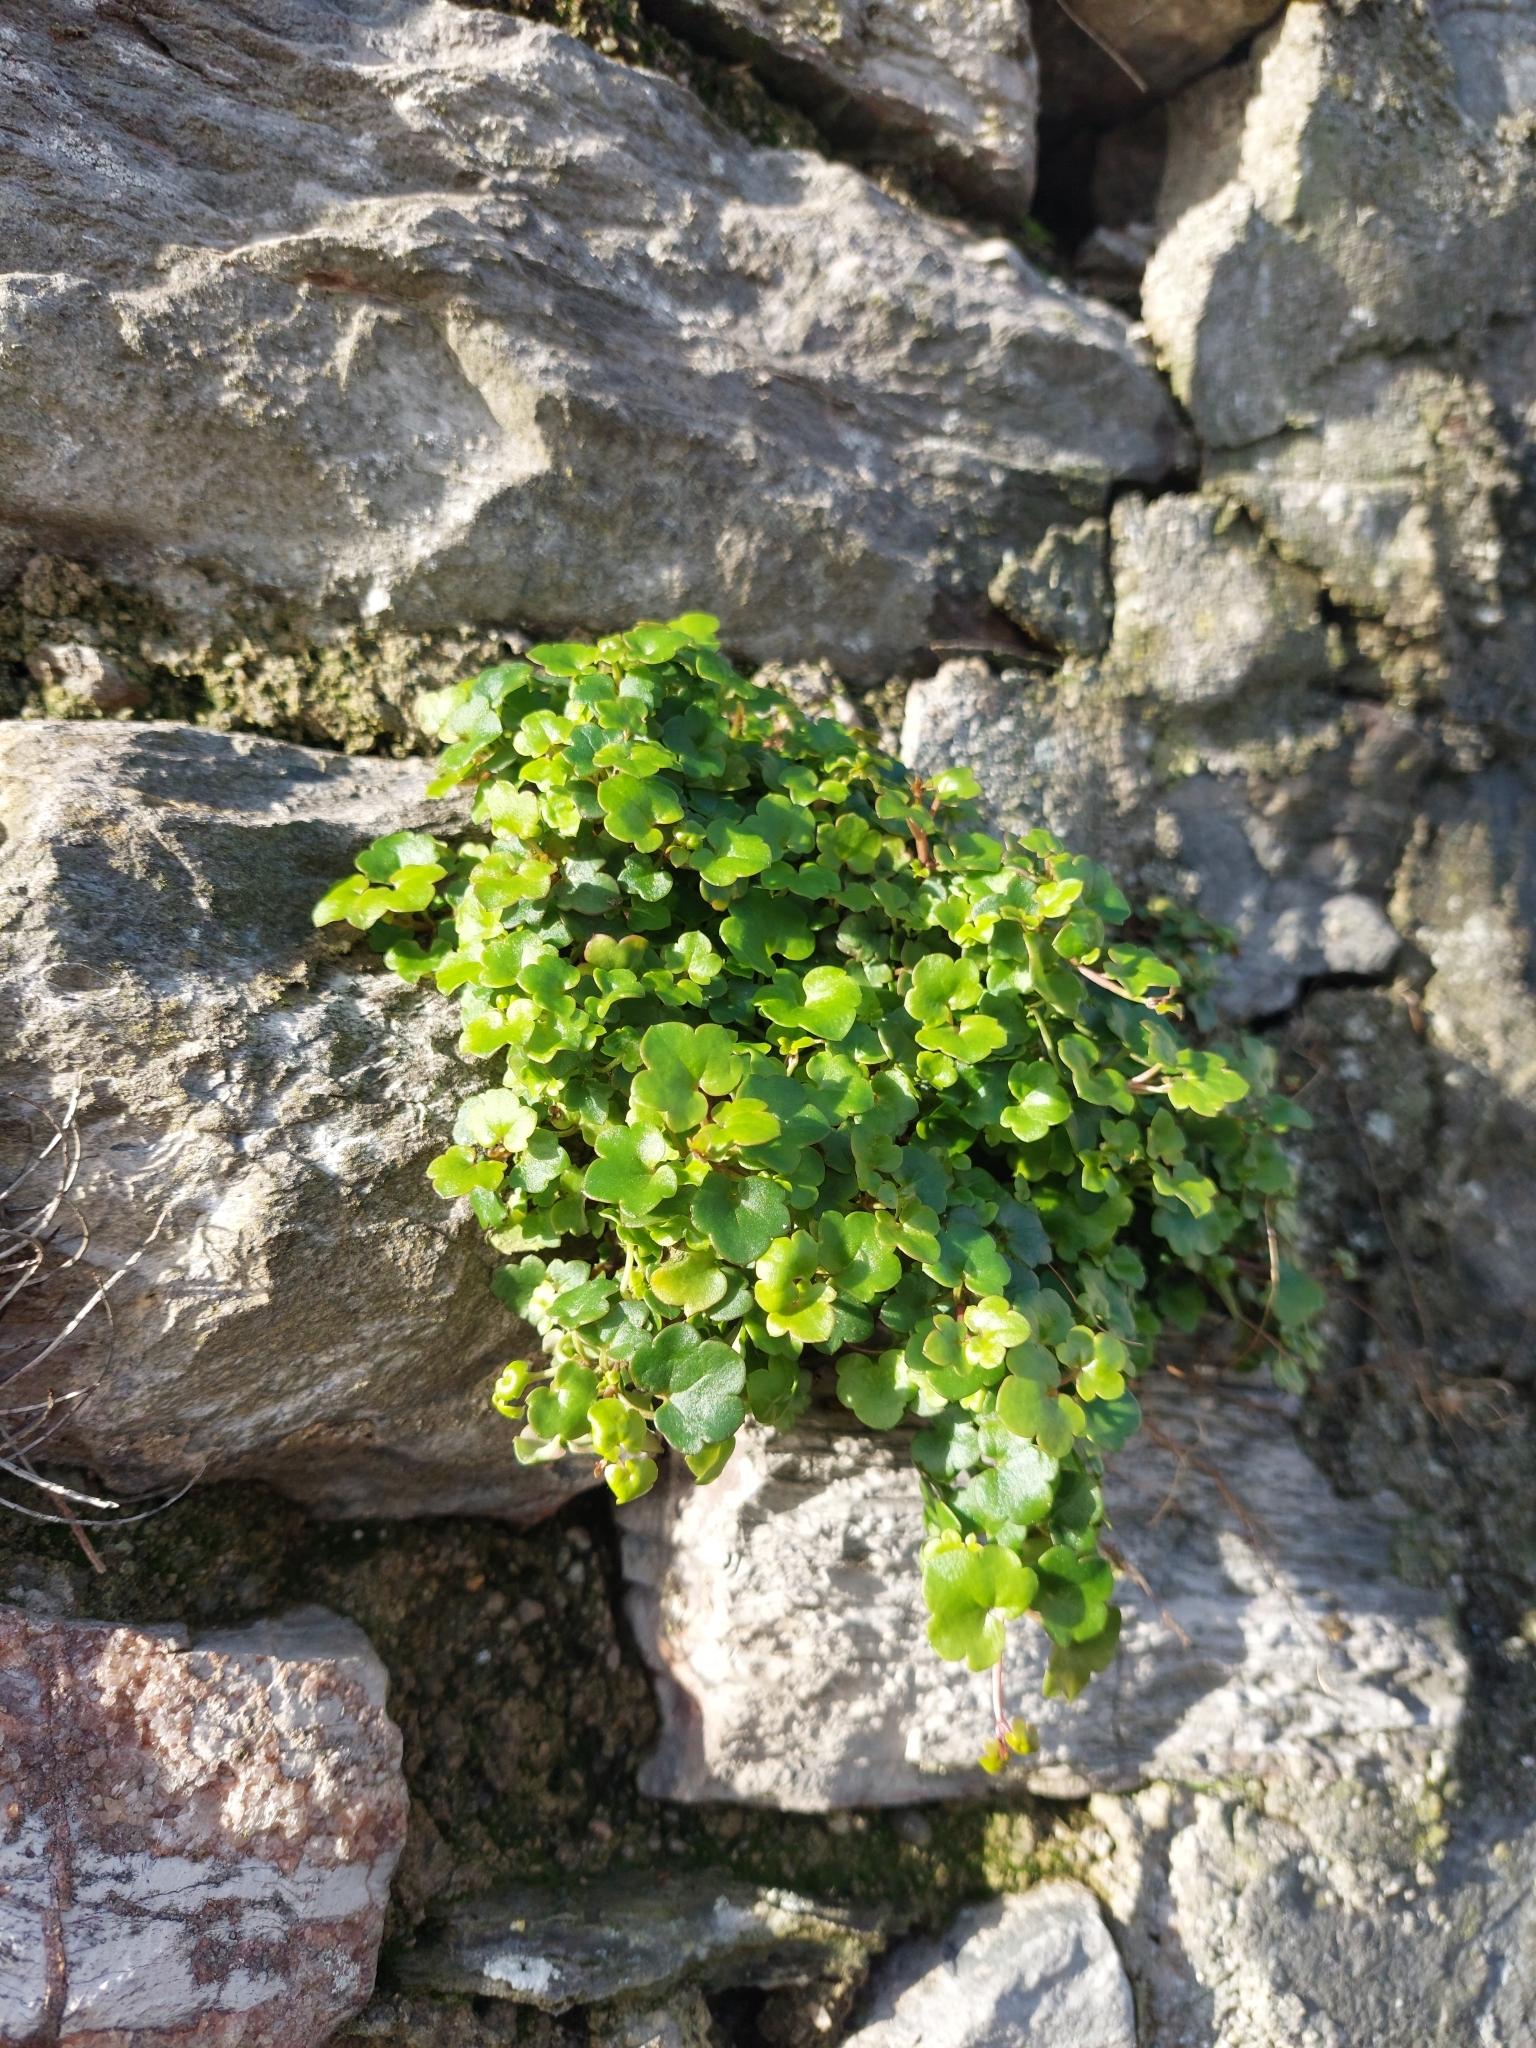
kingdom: Plantae
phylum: Tracheophyta
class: Magnoliopsida
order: Lamiales
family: Plantaginaceae
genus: Cymbalaria
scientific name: Cymbalaria muralis
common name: Ivy-leaved toadflax
